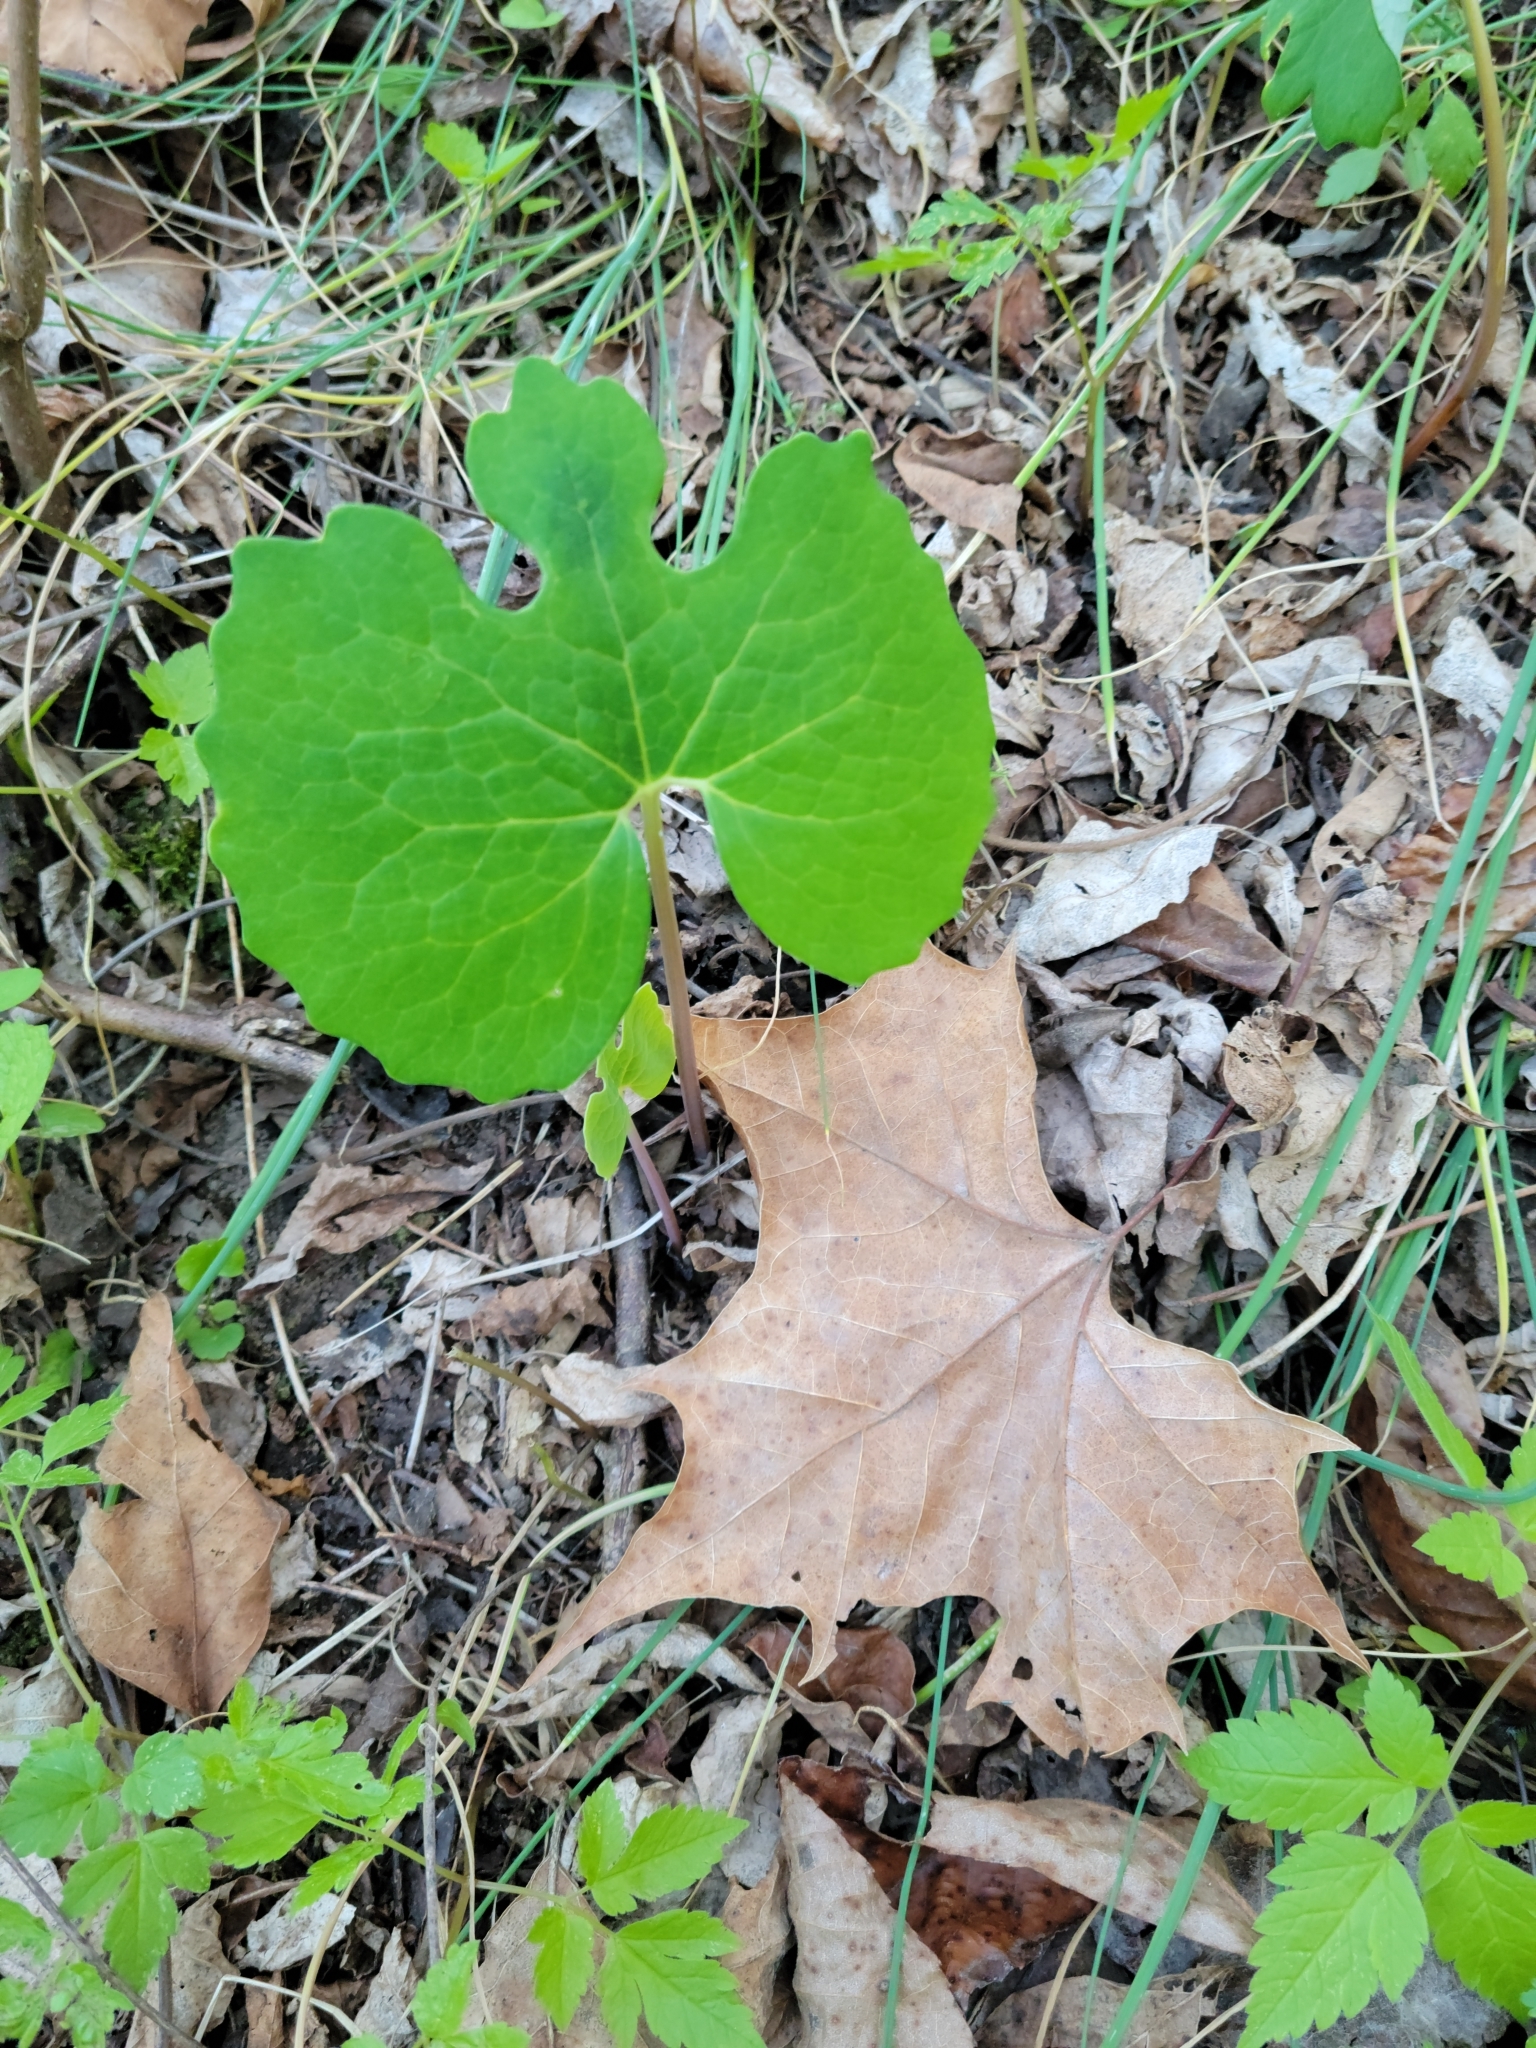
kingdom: Plantae
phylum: Tracheophyta
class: Magnoliopsida
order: Ranunculales
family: Papaveraceae
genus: Sanguinaria
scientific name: Sanguinaria canadensis
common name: Bloodroot
